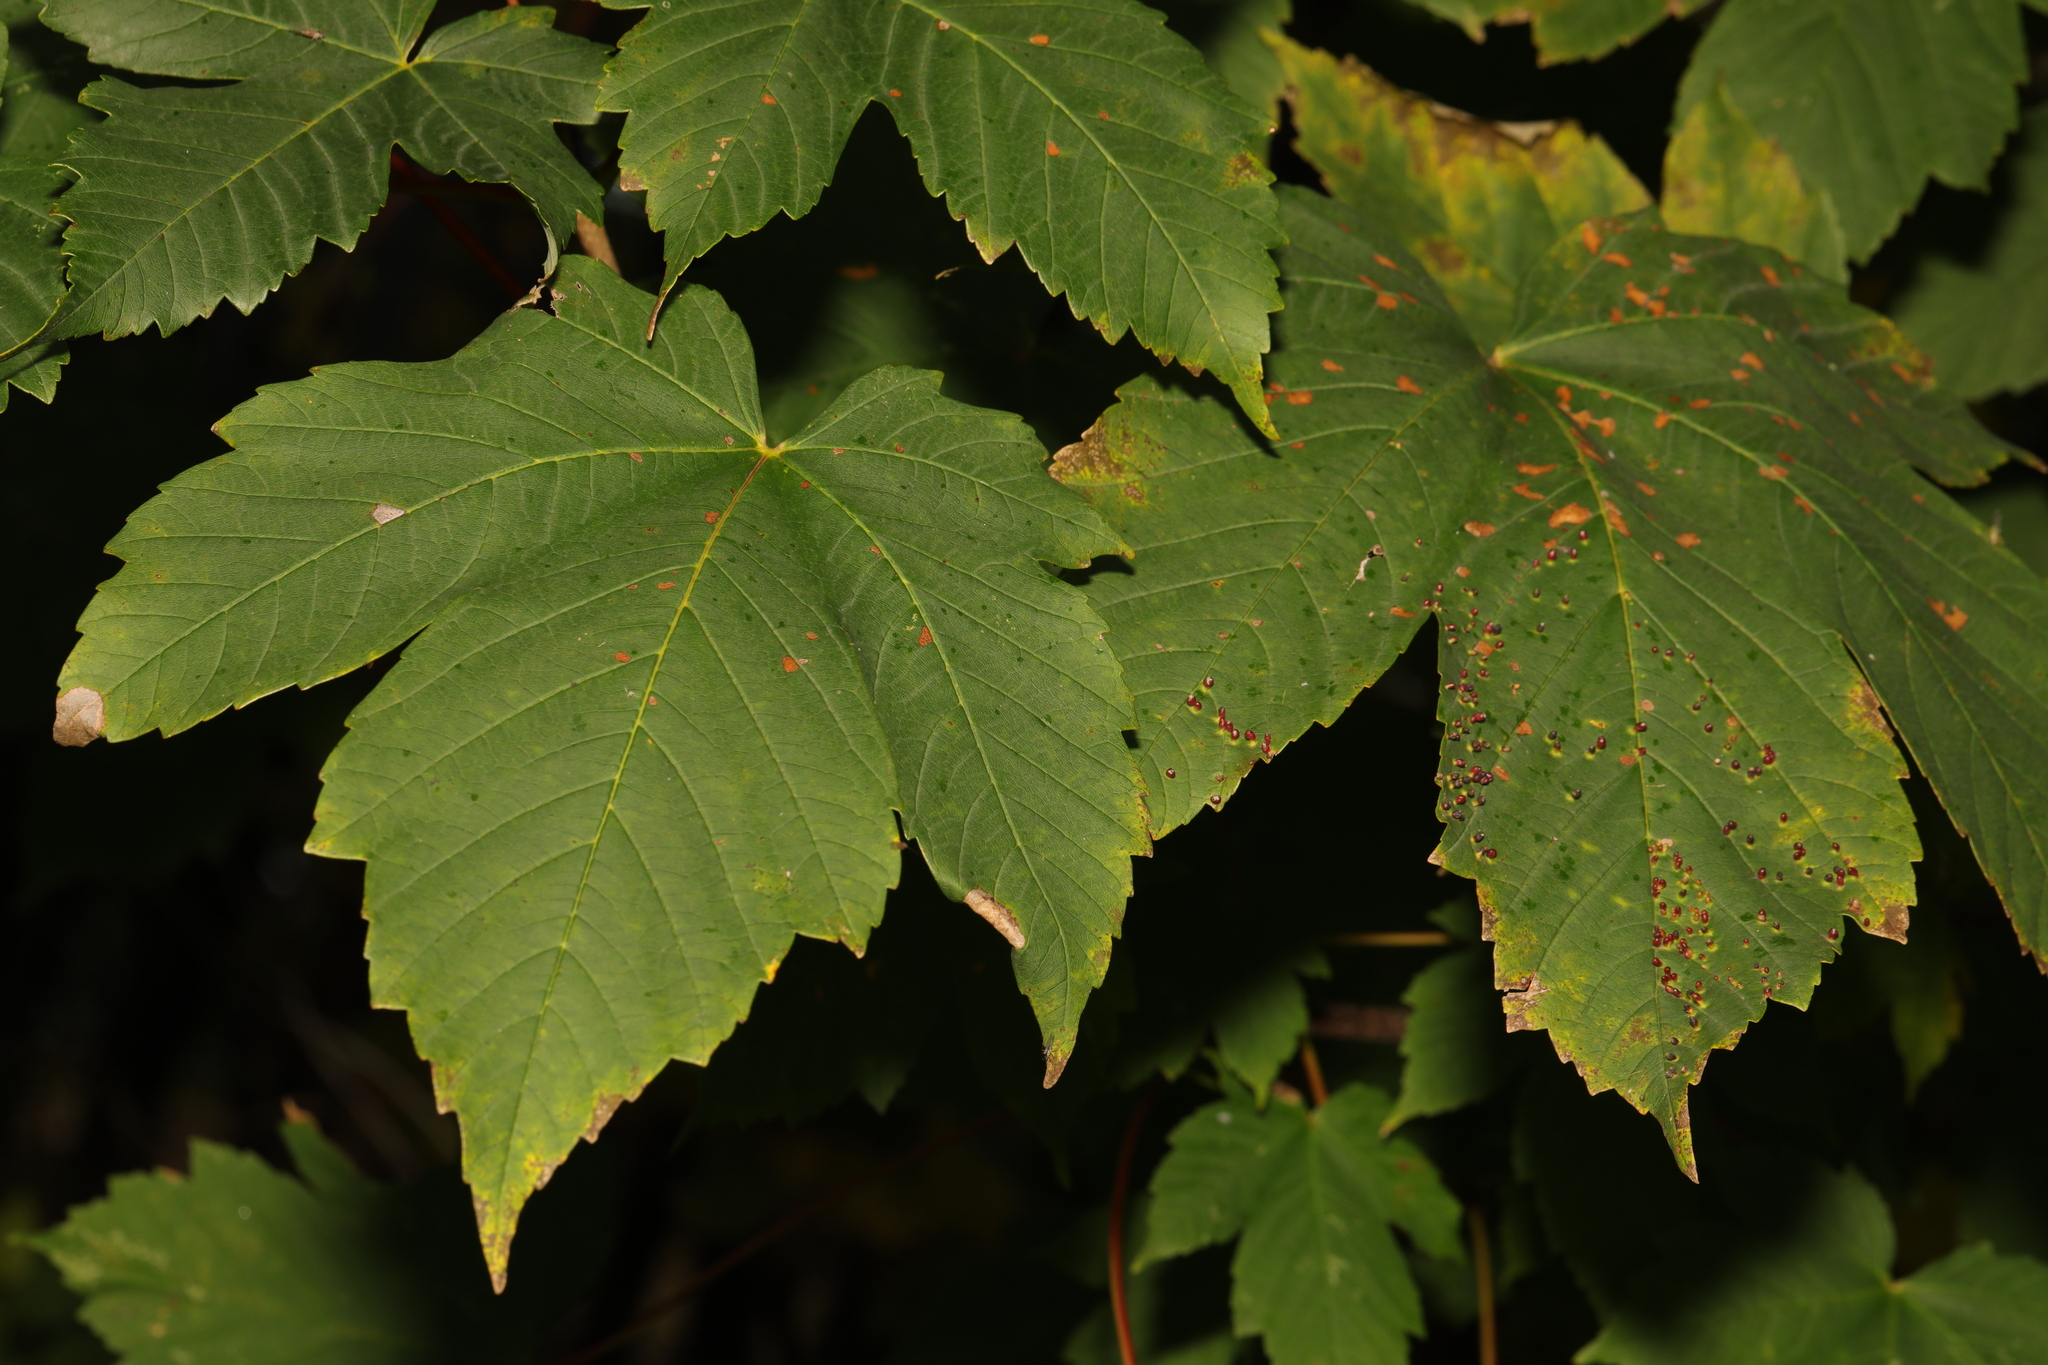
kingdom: Plantae
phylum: Tracheophyta
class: Magnoliopsida
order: Sapindales
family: Sapindaceae
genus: Acer
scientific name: Acer pseudoplatanus
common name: Sycamore
